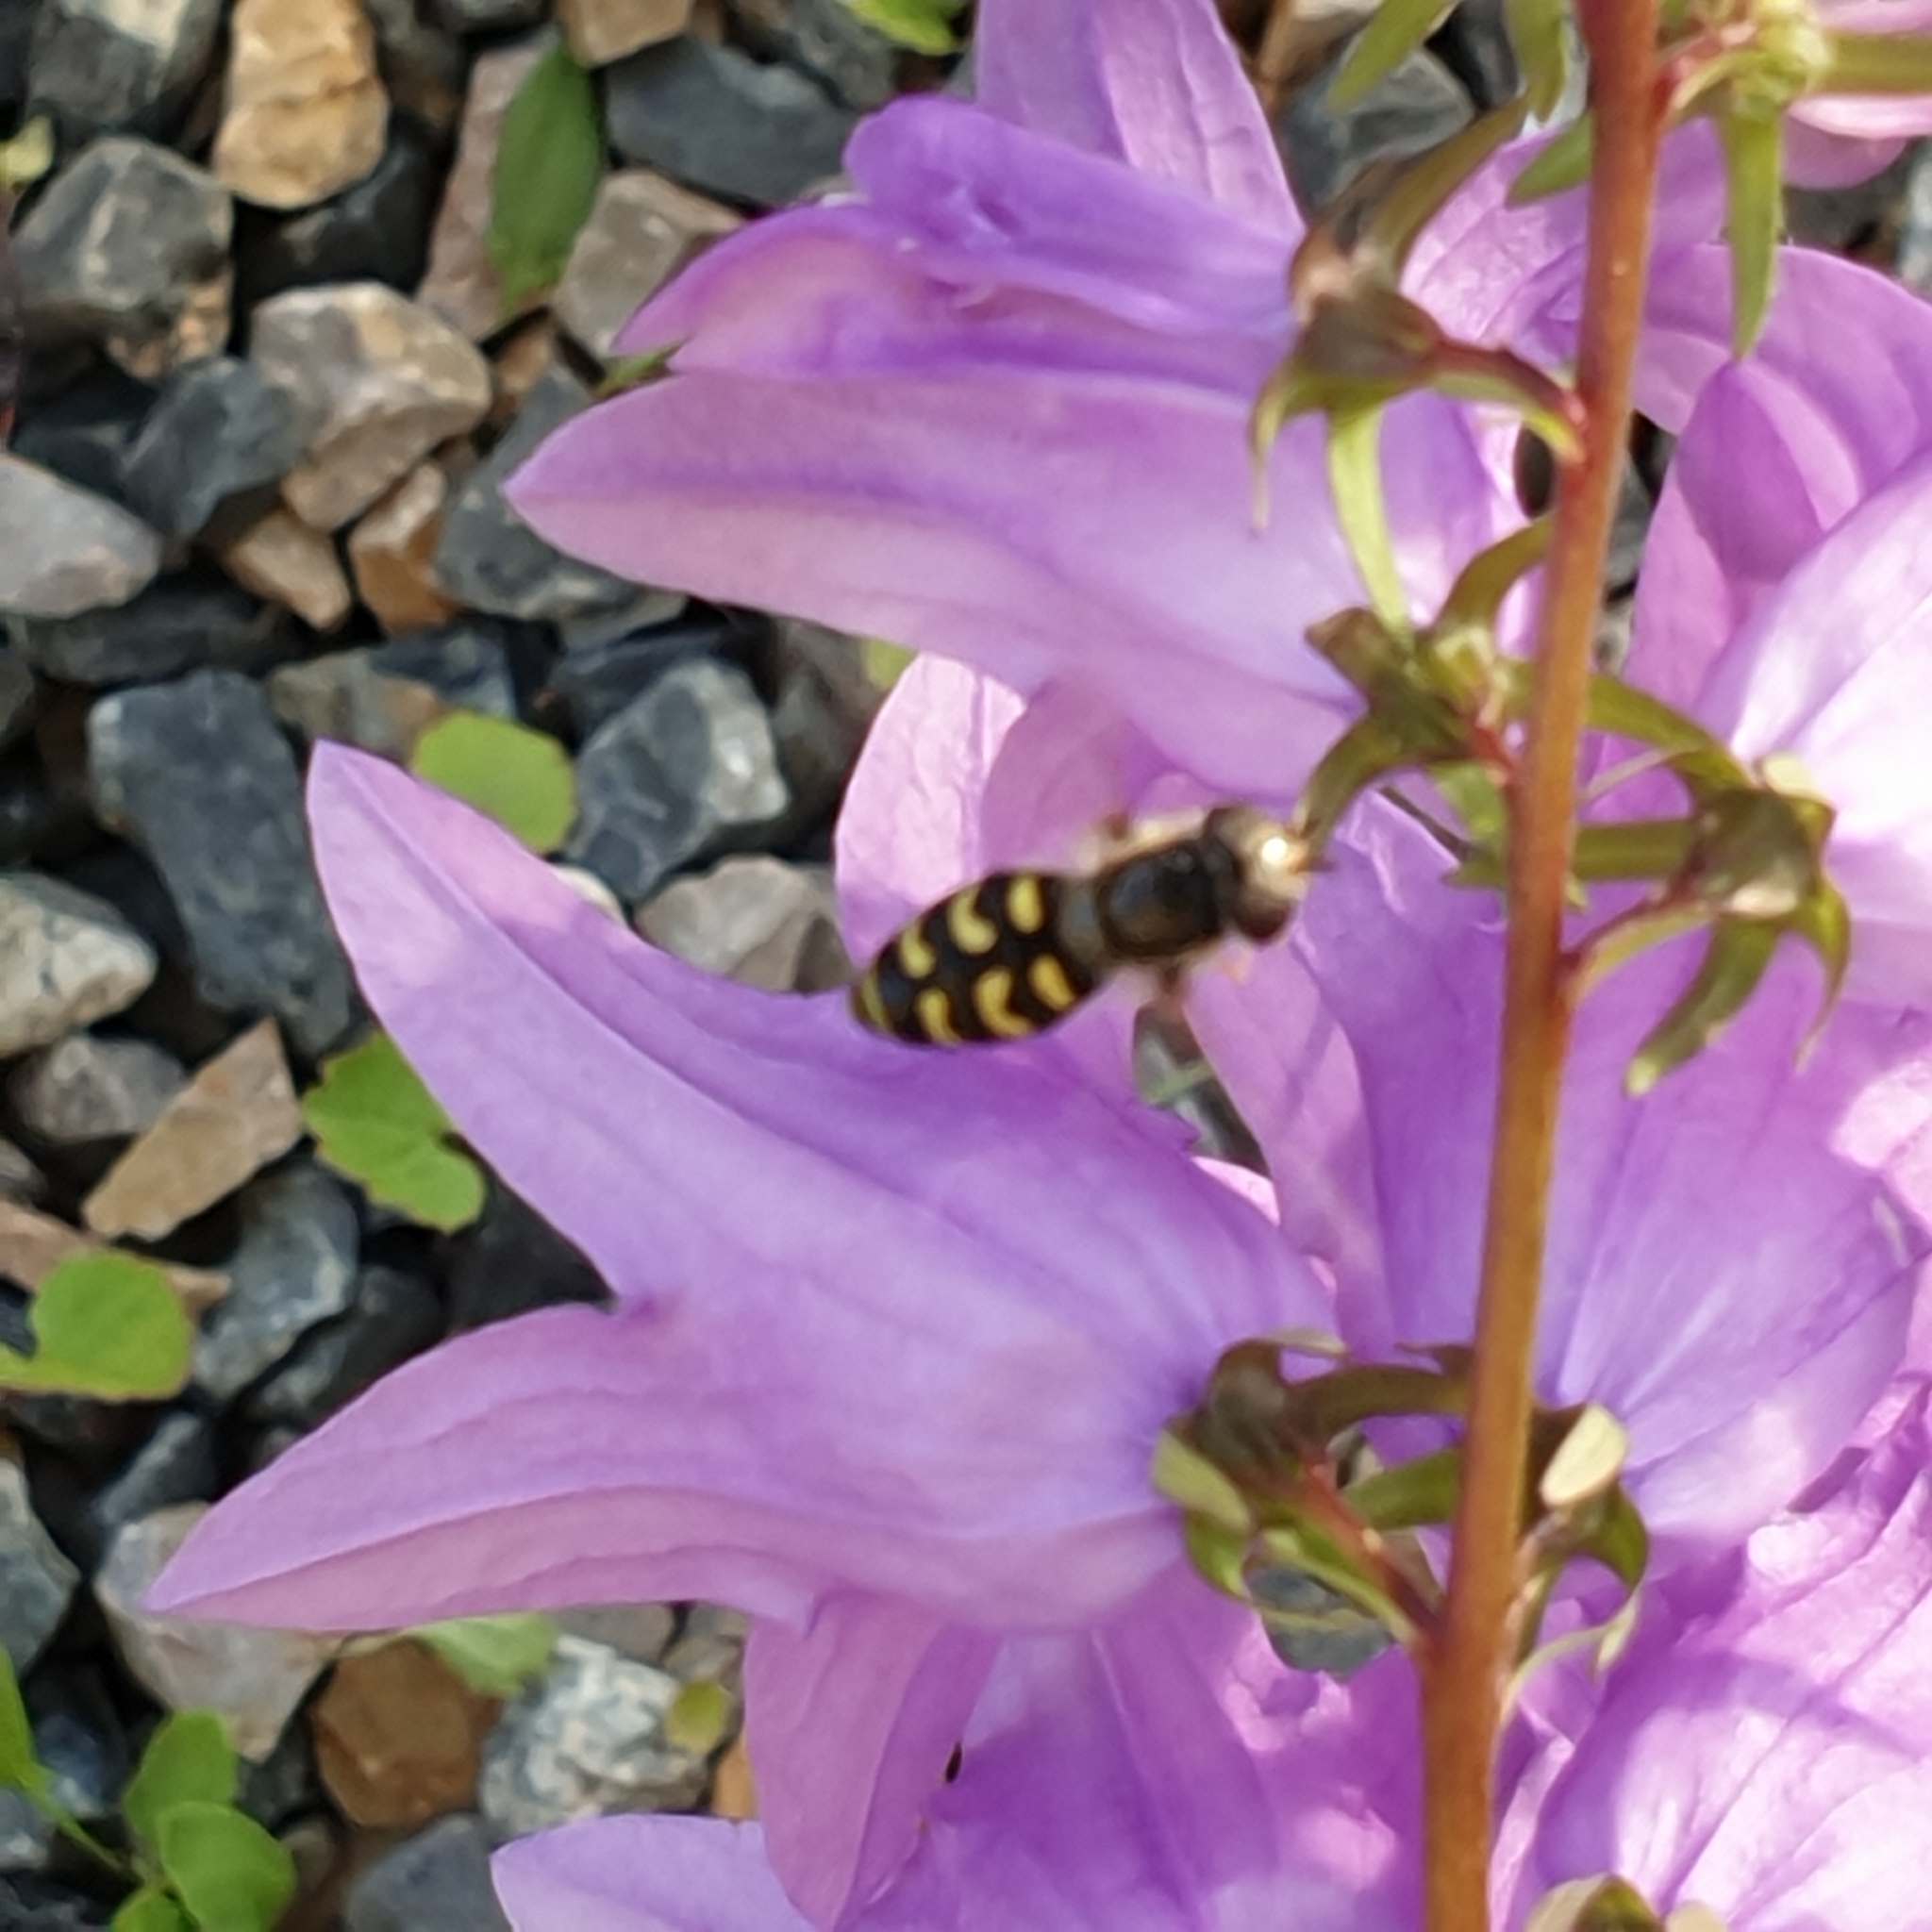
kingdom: Animalia
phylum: Arthropoda
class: Insecta
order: Diptera
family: Syrphidae
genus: Scaeva
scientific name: Scaeva selenitica
